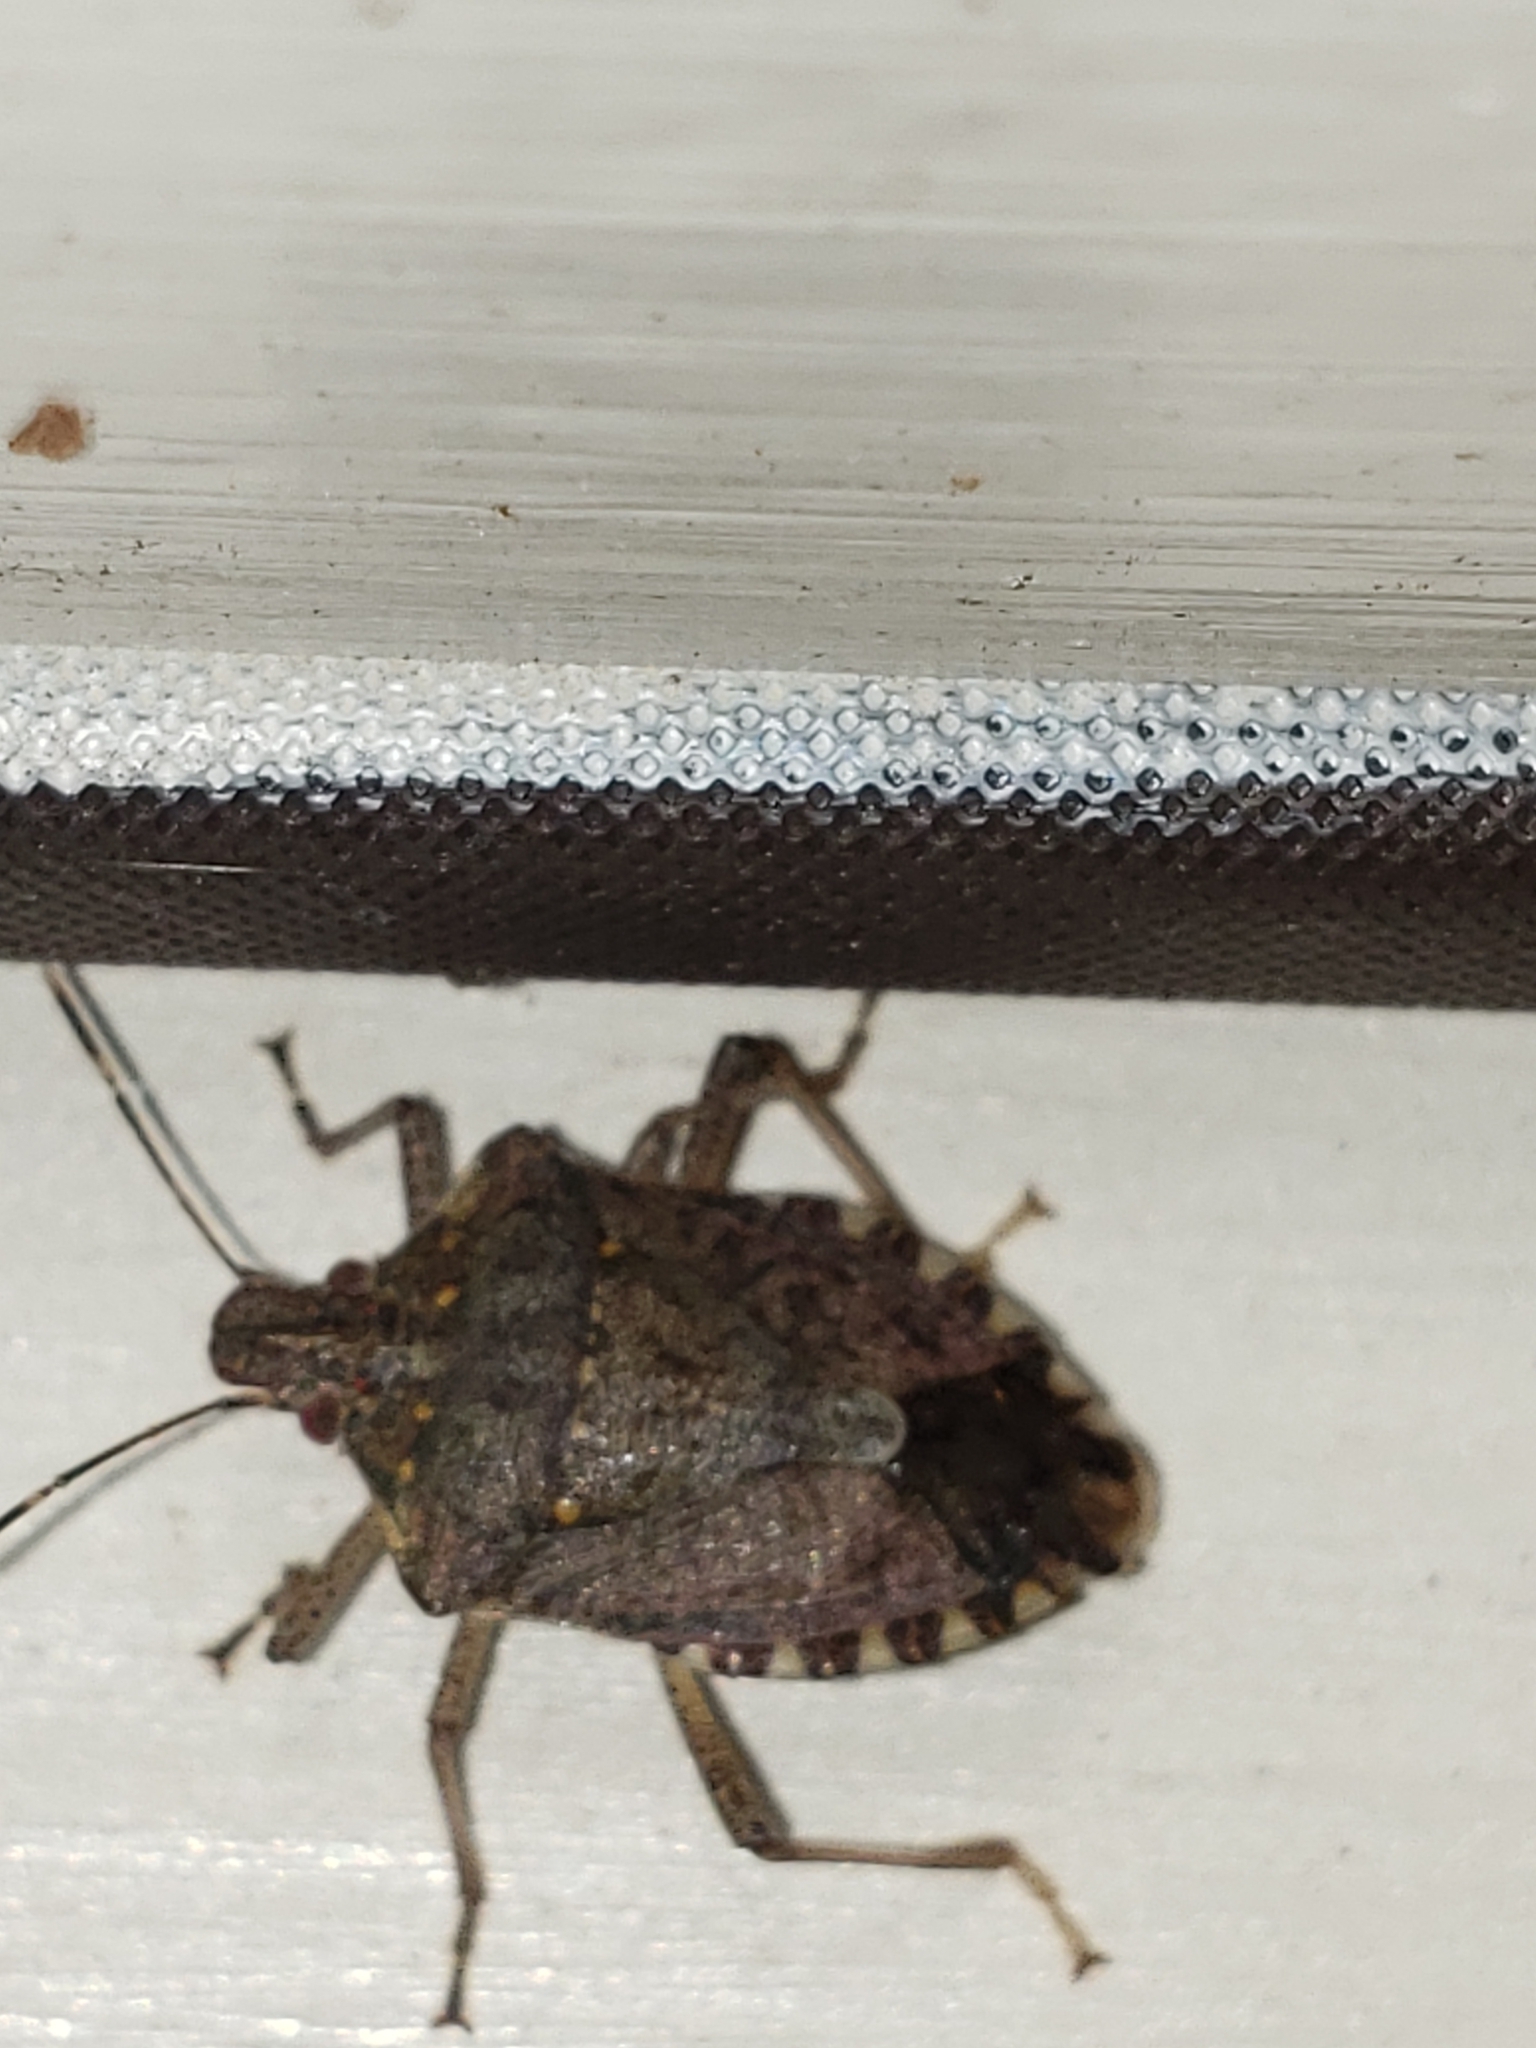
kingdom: Animalia
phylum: Arthropoda
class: Insecta
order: Hemiptera
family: Pentatomidae
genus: Halyomorpha
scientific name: Halyomorpha halys
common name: Brown marmorated stink bug
